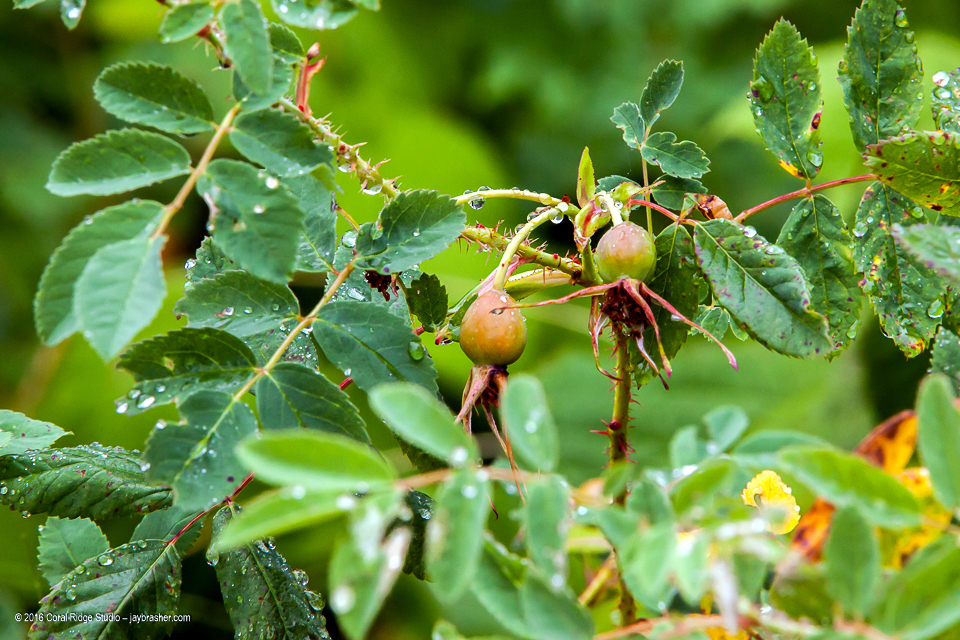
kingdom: Plantae
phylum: Tracheophyta
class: Magnoliopsida
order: Rosales
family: Rosaceae
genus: Rosa
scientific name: Rosa acicularis
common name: Prickly rose
